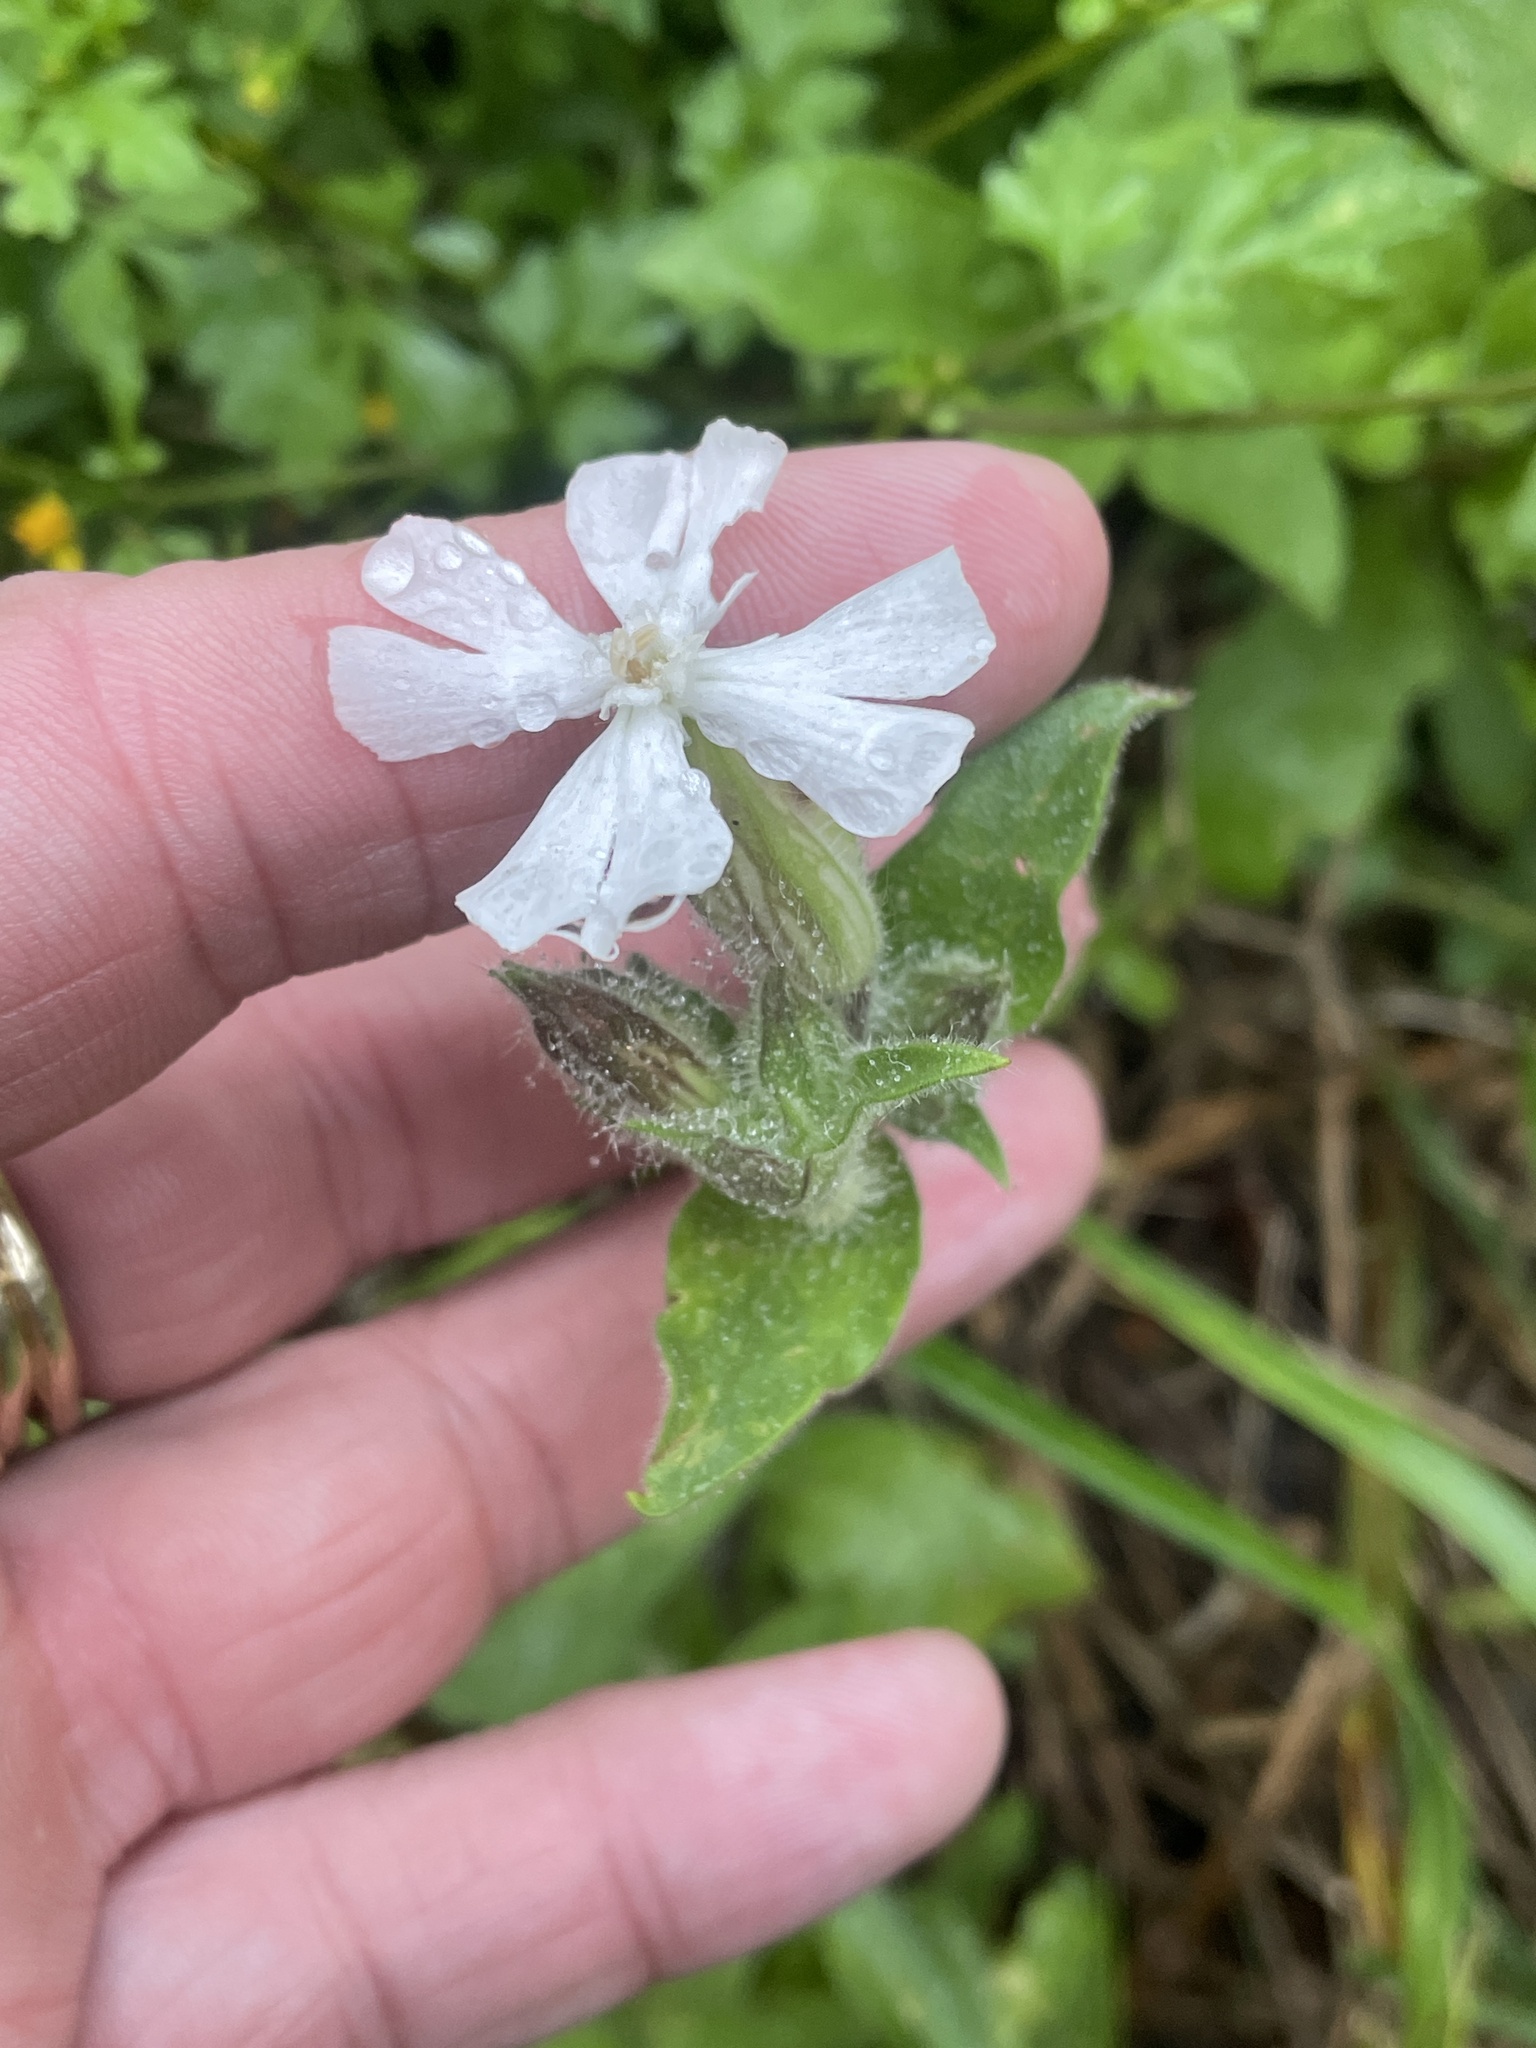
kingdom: Plantae
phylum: Tracheophyta
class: Magnoliopsida
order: Caryophyllales
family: Caryophyllaceae
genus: Silene
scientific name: Silene latifolia
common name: White campion
